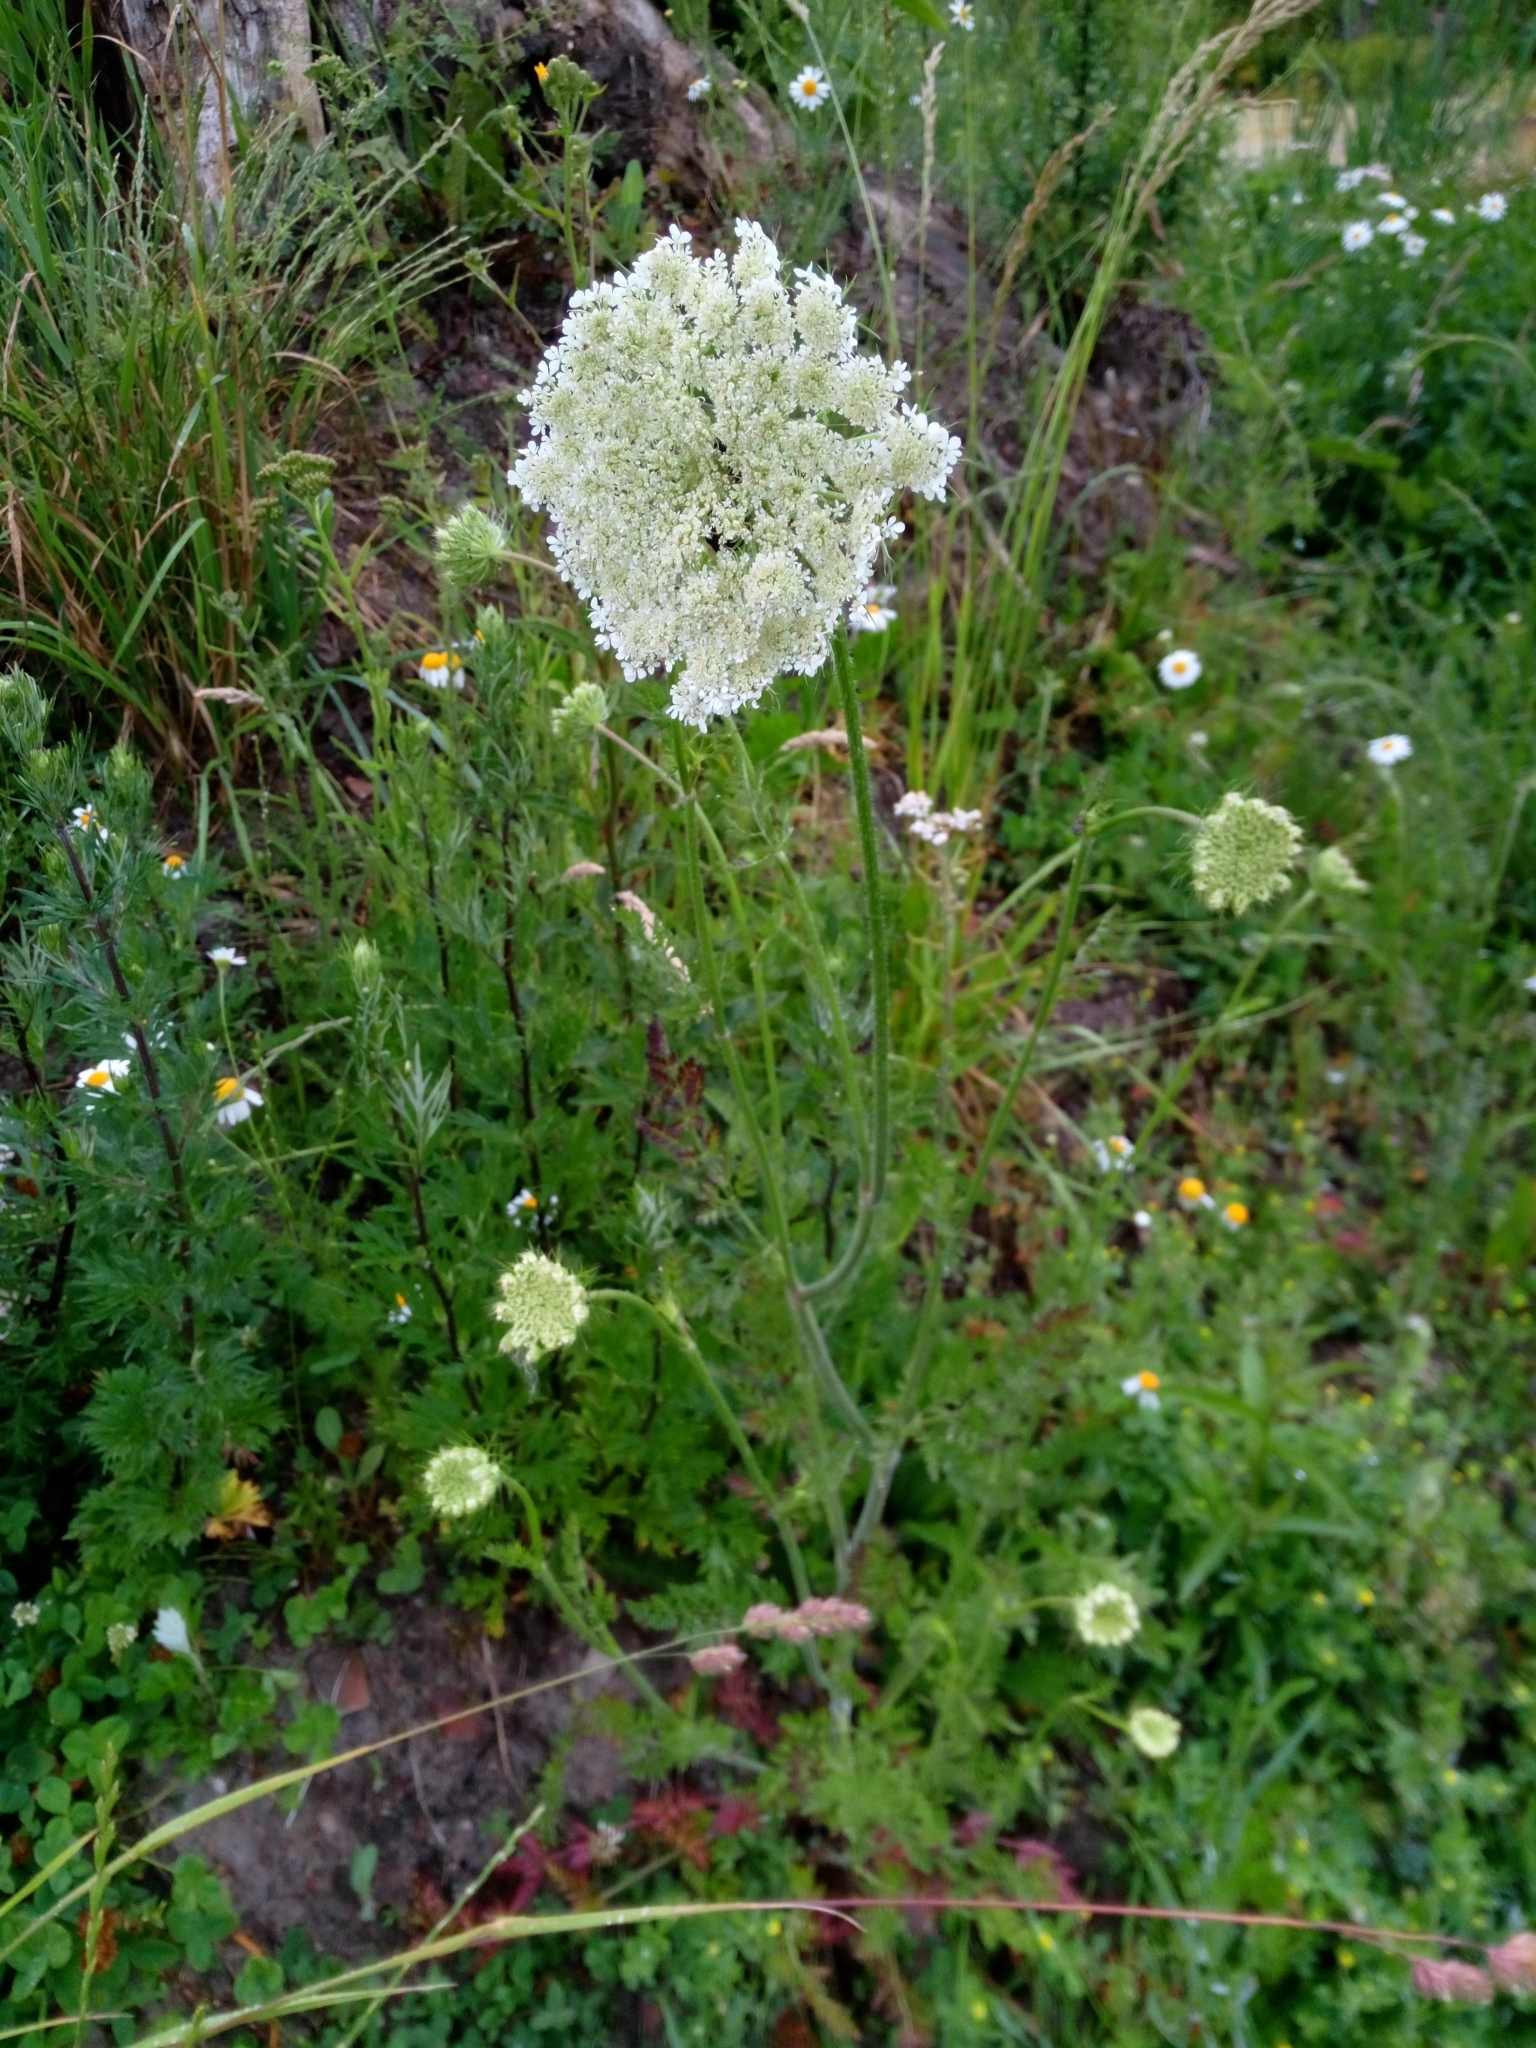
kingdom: Plantae
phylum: Tracheophyta
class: Magnoliopsida
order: Apiales
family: Apiaceae
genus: Daucus
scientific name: Daucus carota
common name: Wild carrot
